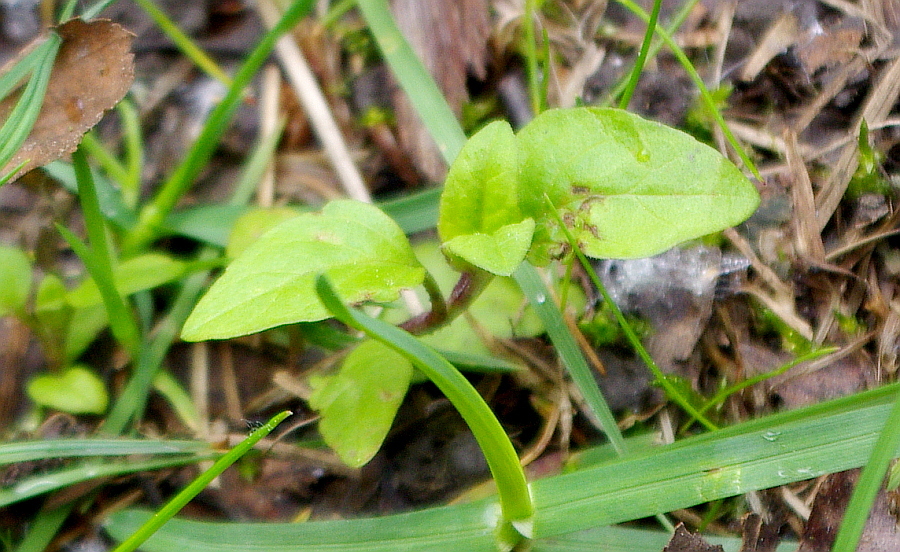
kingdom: Plantae
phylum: Tracheophyta
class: Magnoliopsida
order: Lamiales
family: Lamiaceae
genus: Prunella
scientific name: Prunella vulgaris
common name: Heal-all
